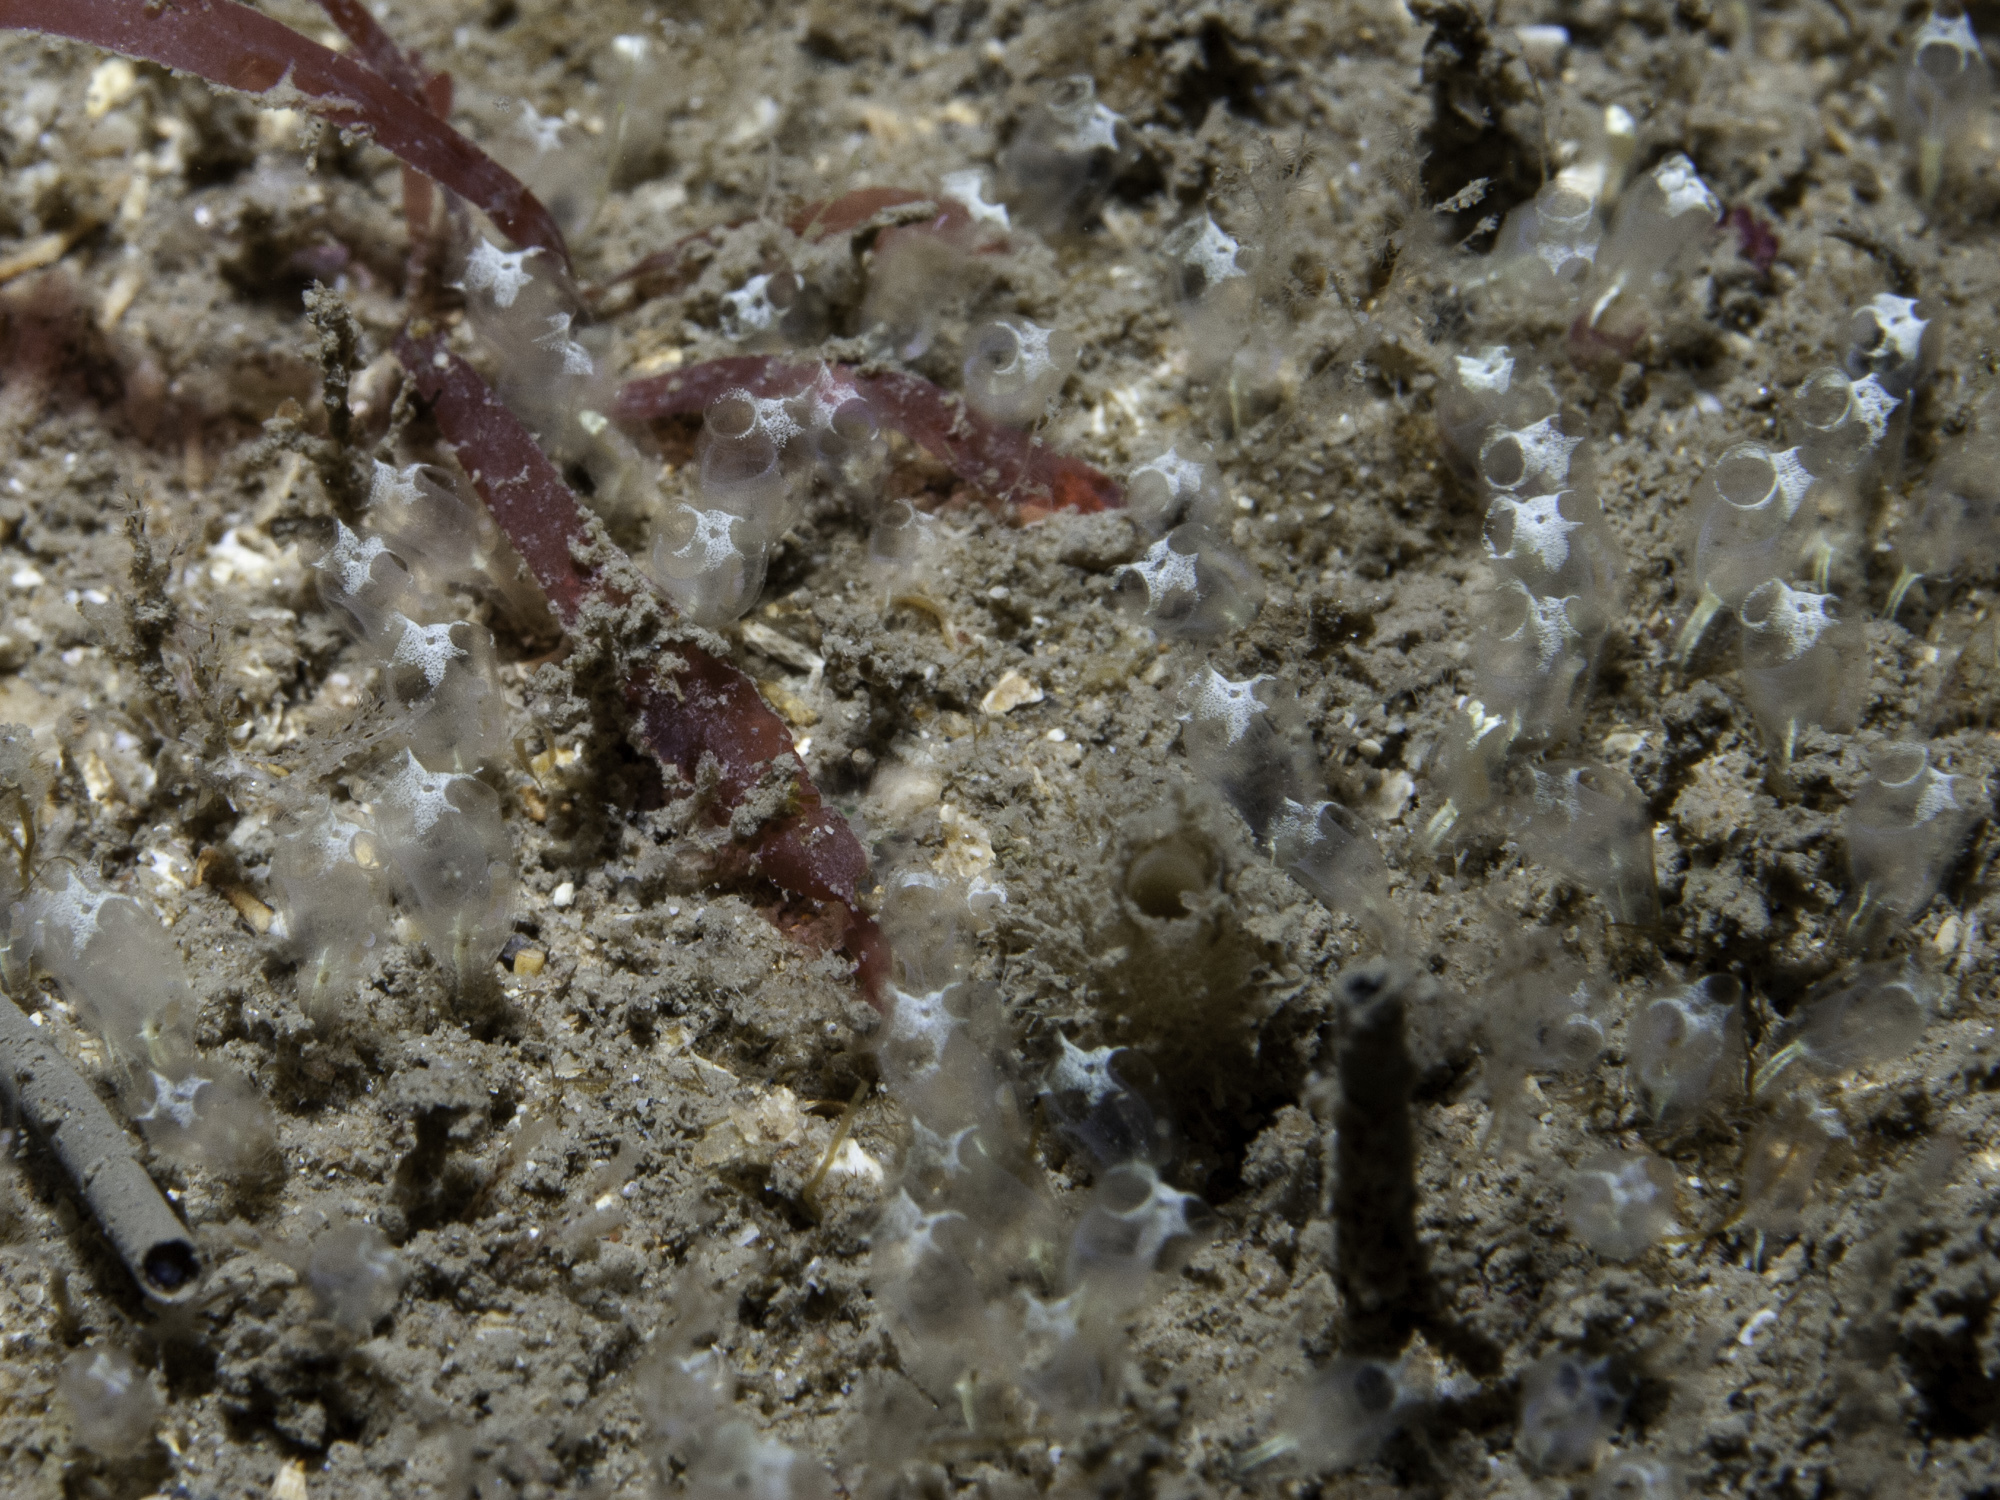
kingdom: Animalia
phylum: Chordata
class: Ascidiacea
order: Aplousobranchia
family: Clavelinidae
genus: Pycnoclavella
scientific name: Pycnoclavella stolonialis
